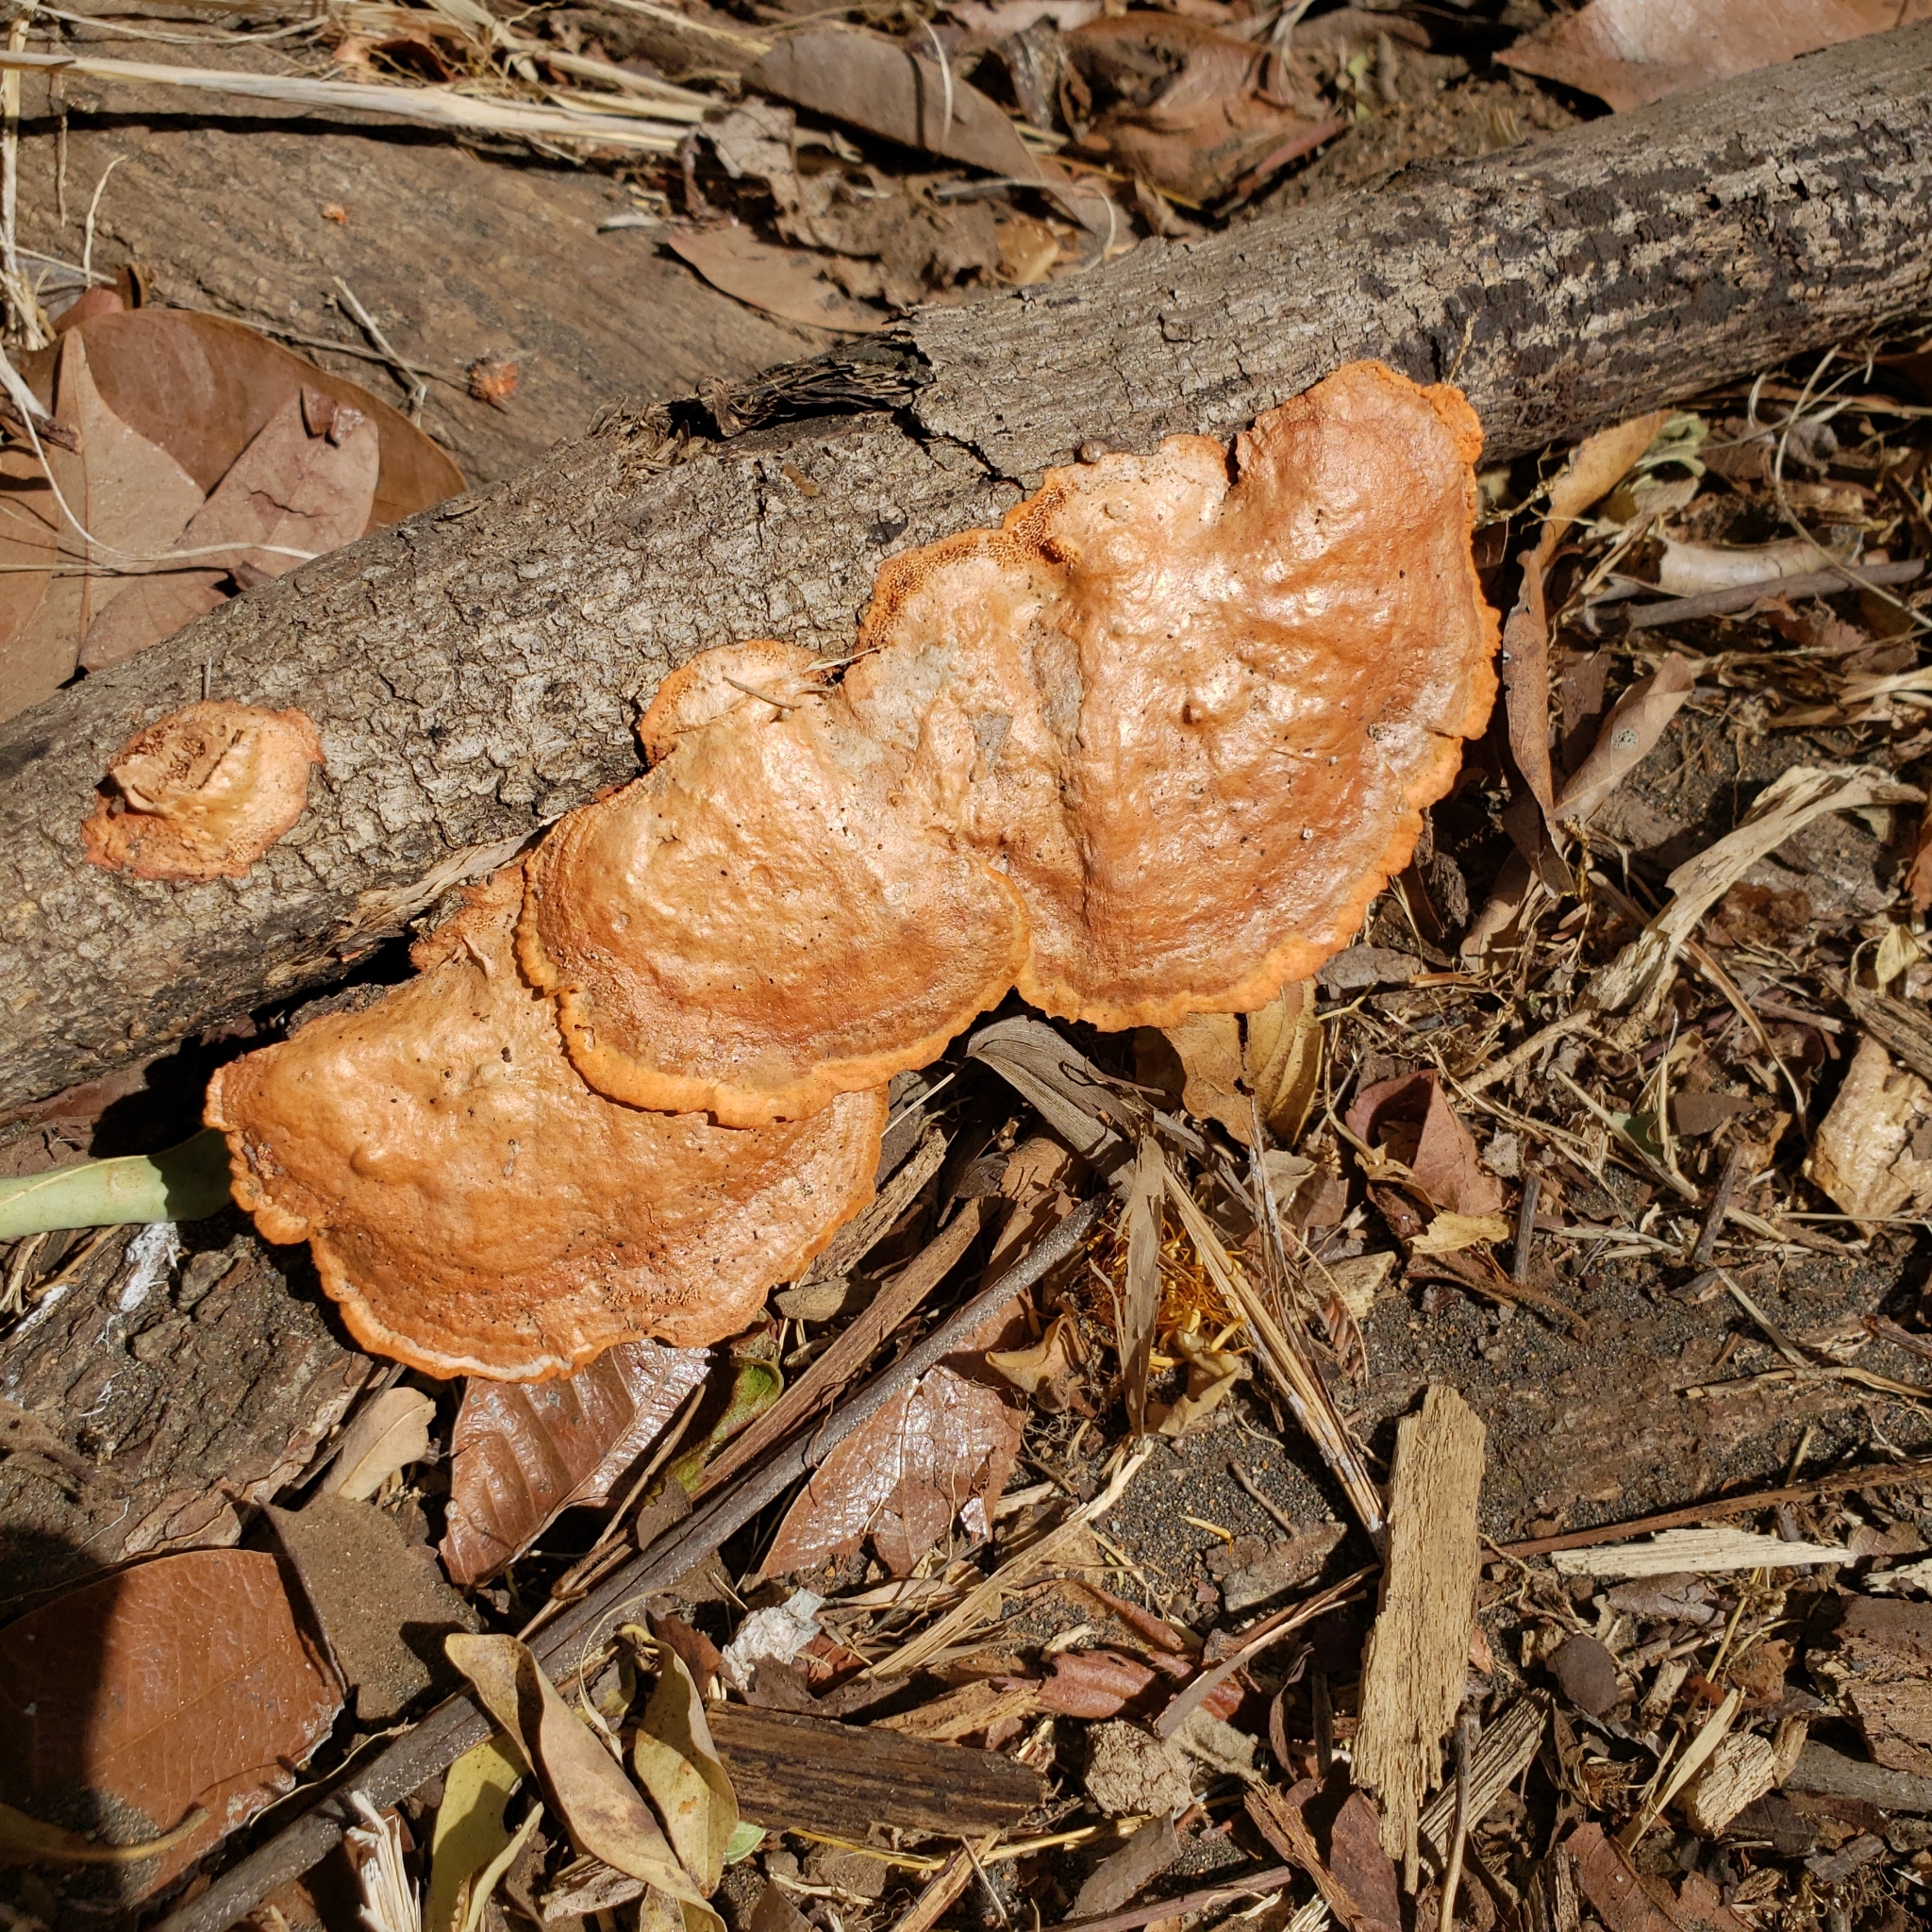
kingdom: Fungi
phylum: Basidiomycota
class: Agaricomycetes
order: Polyporales
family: Polyporaceae
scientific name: Polyporaceae
